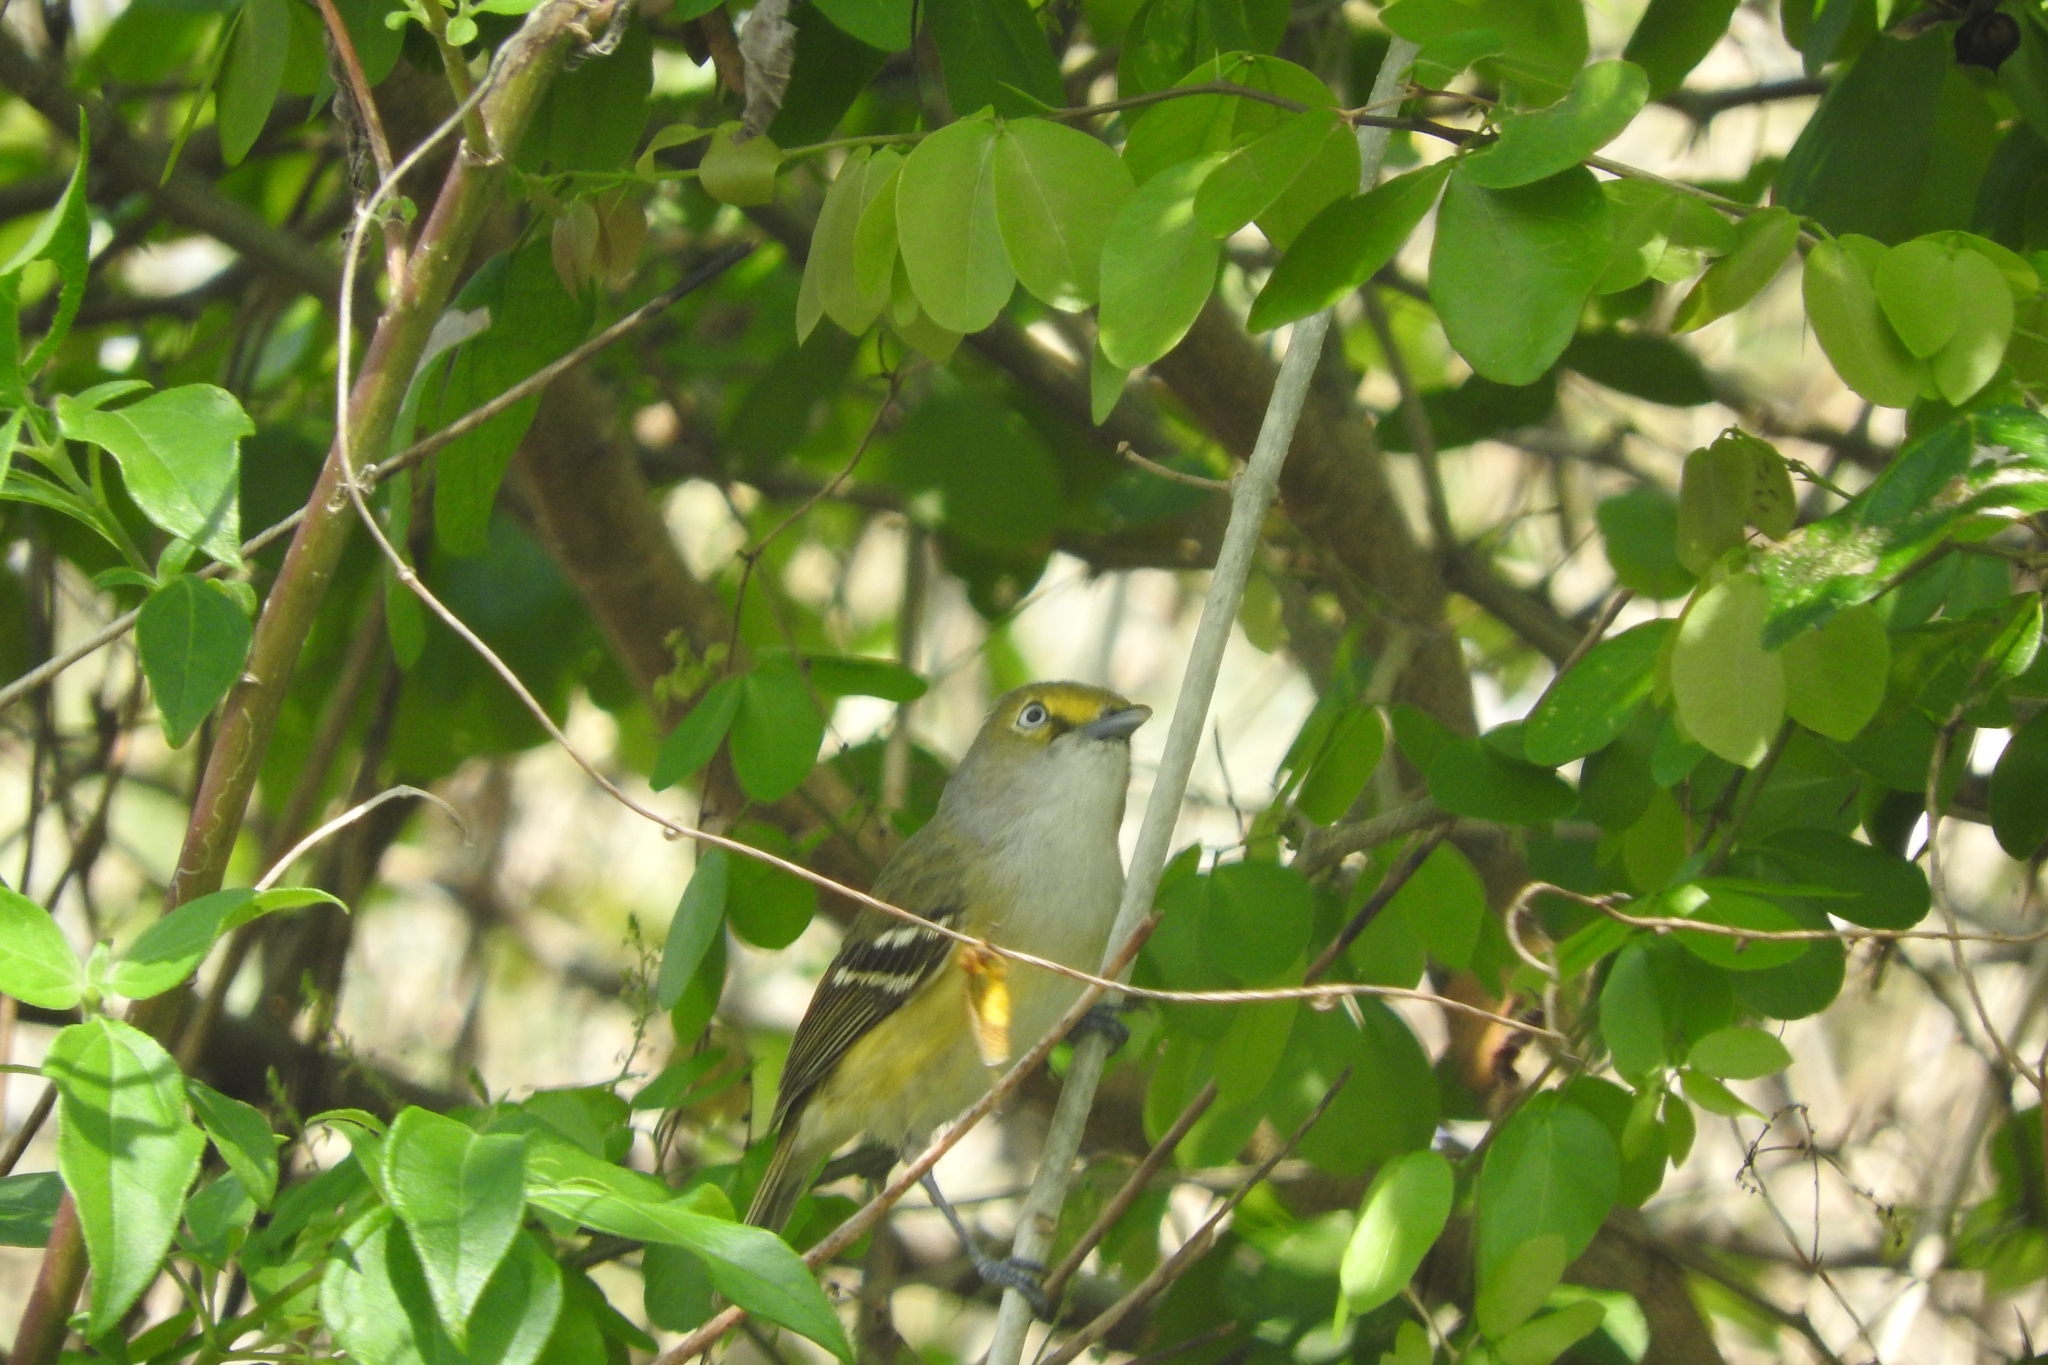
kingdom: Animalia
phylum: Chordata
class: Aves
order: Passeriformes
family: Vireonidae
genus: Vireo
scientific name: Vireo griseus
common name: White-eyed vireo
